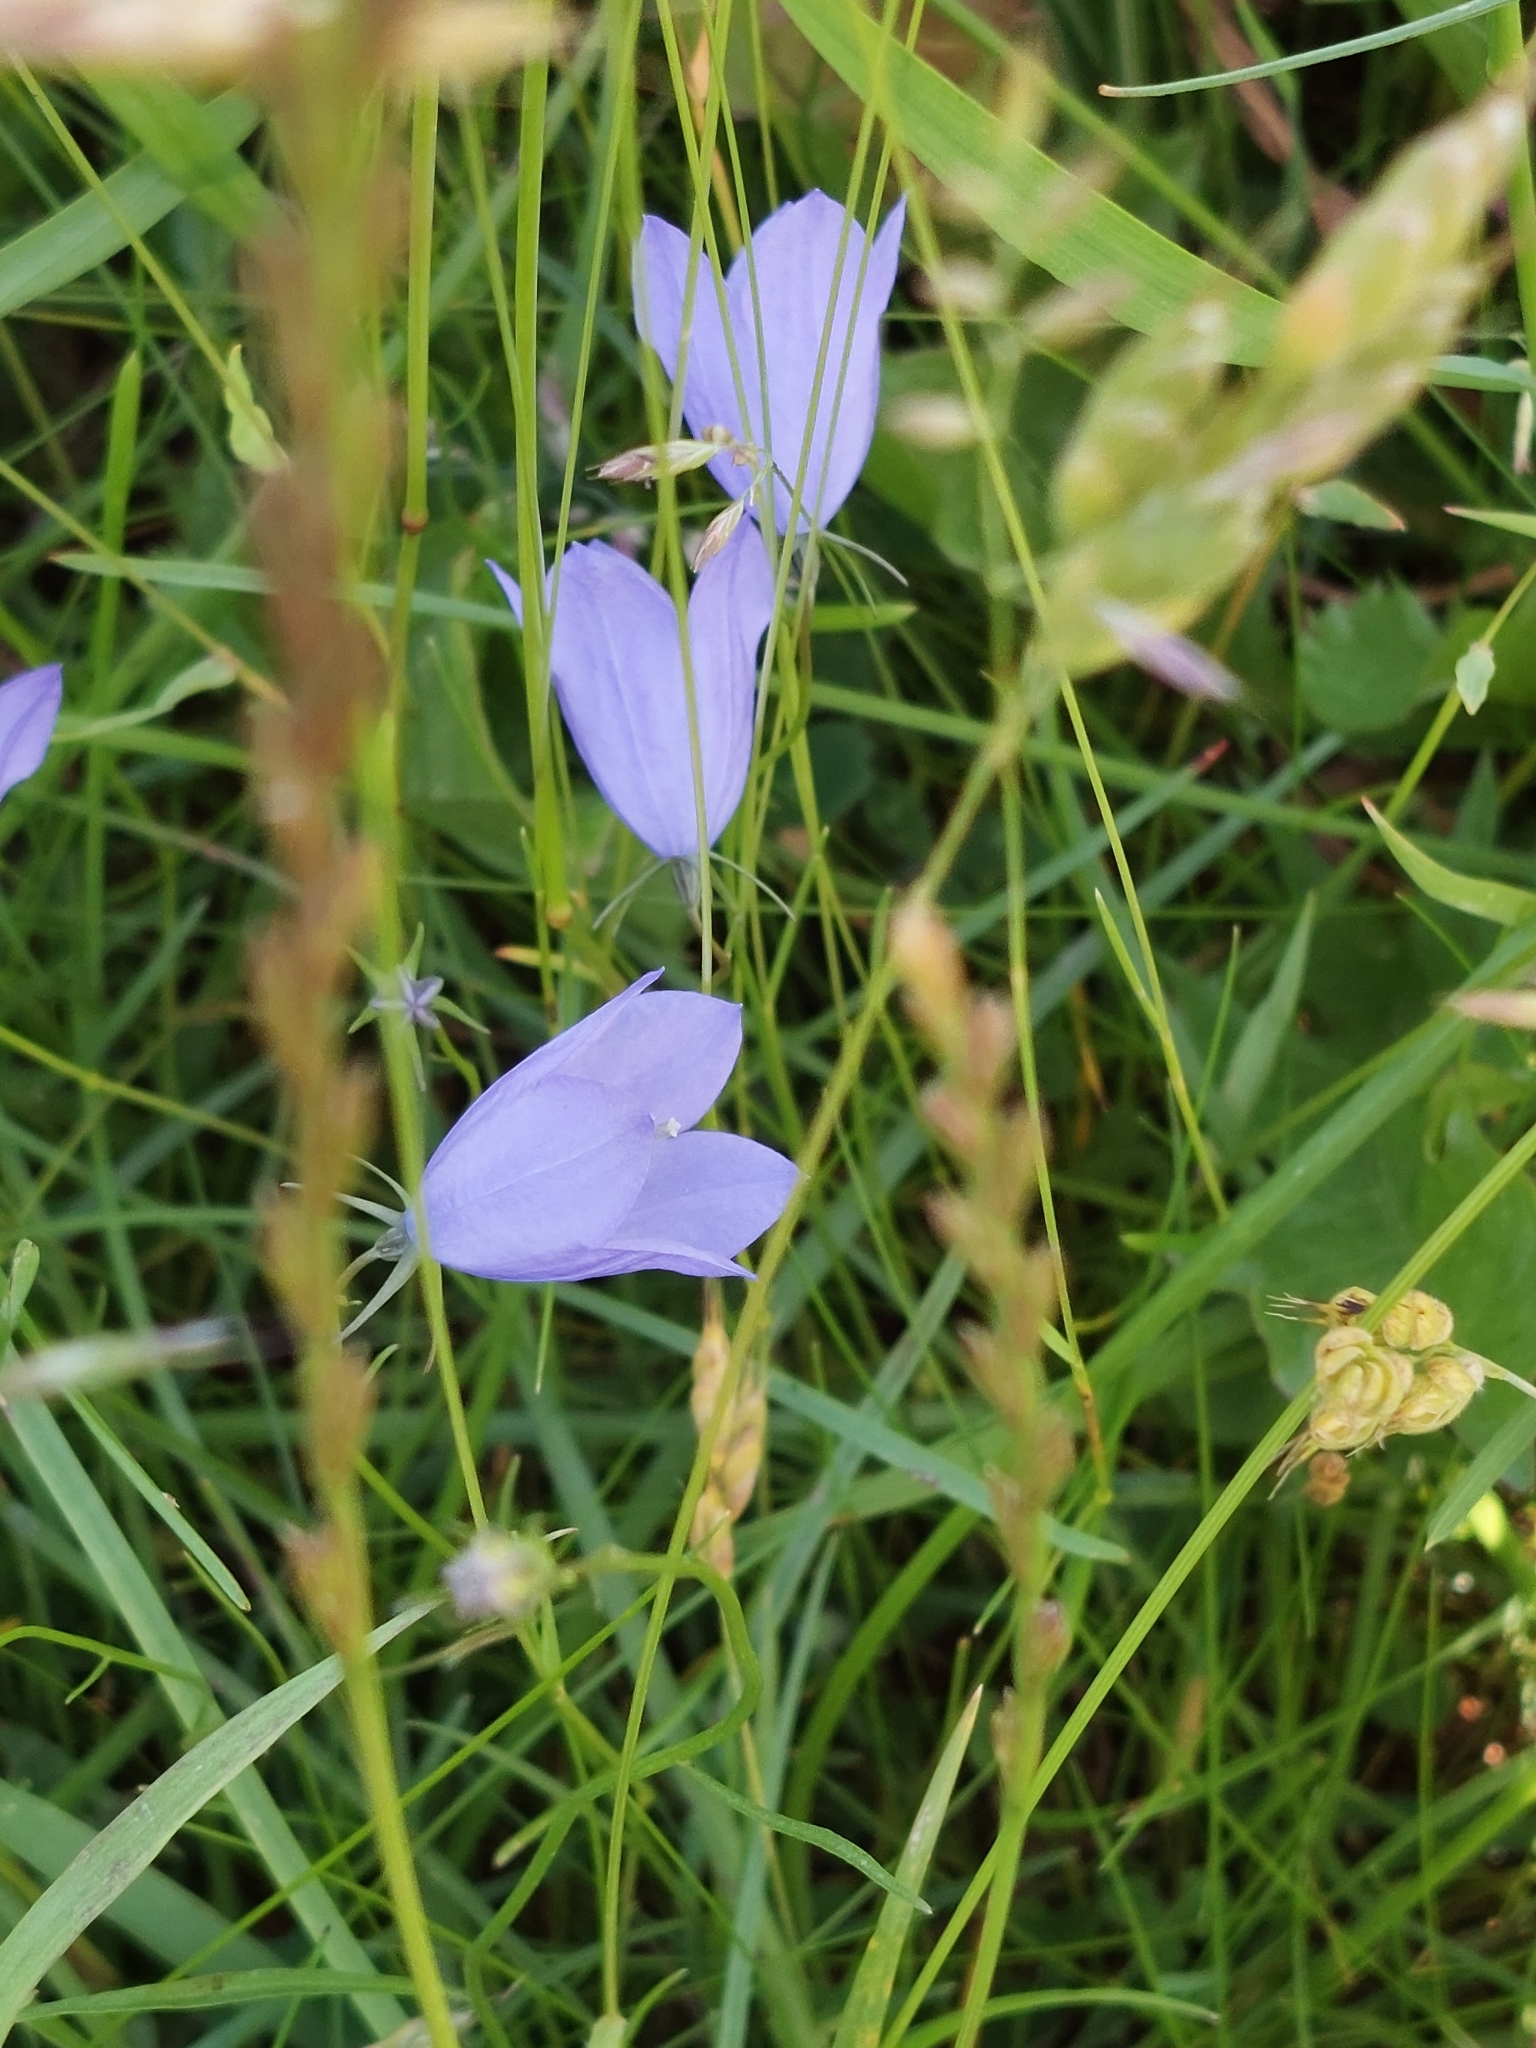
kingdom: Plantae
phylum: Tracheophyta
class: Magnoliopsida
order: Asterales
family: Campanulaceae
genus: Campanula
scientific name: Campanula rotundifolia
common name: Harebell
